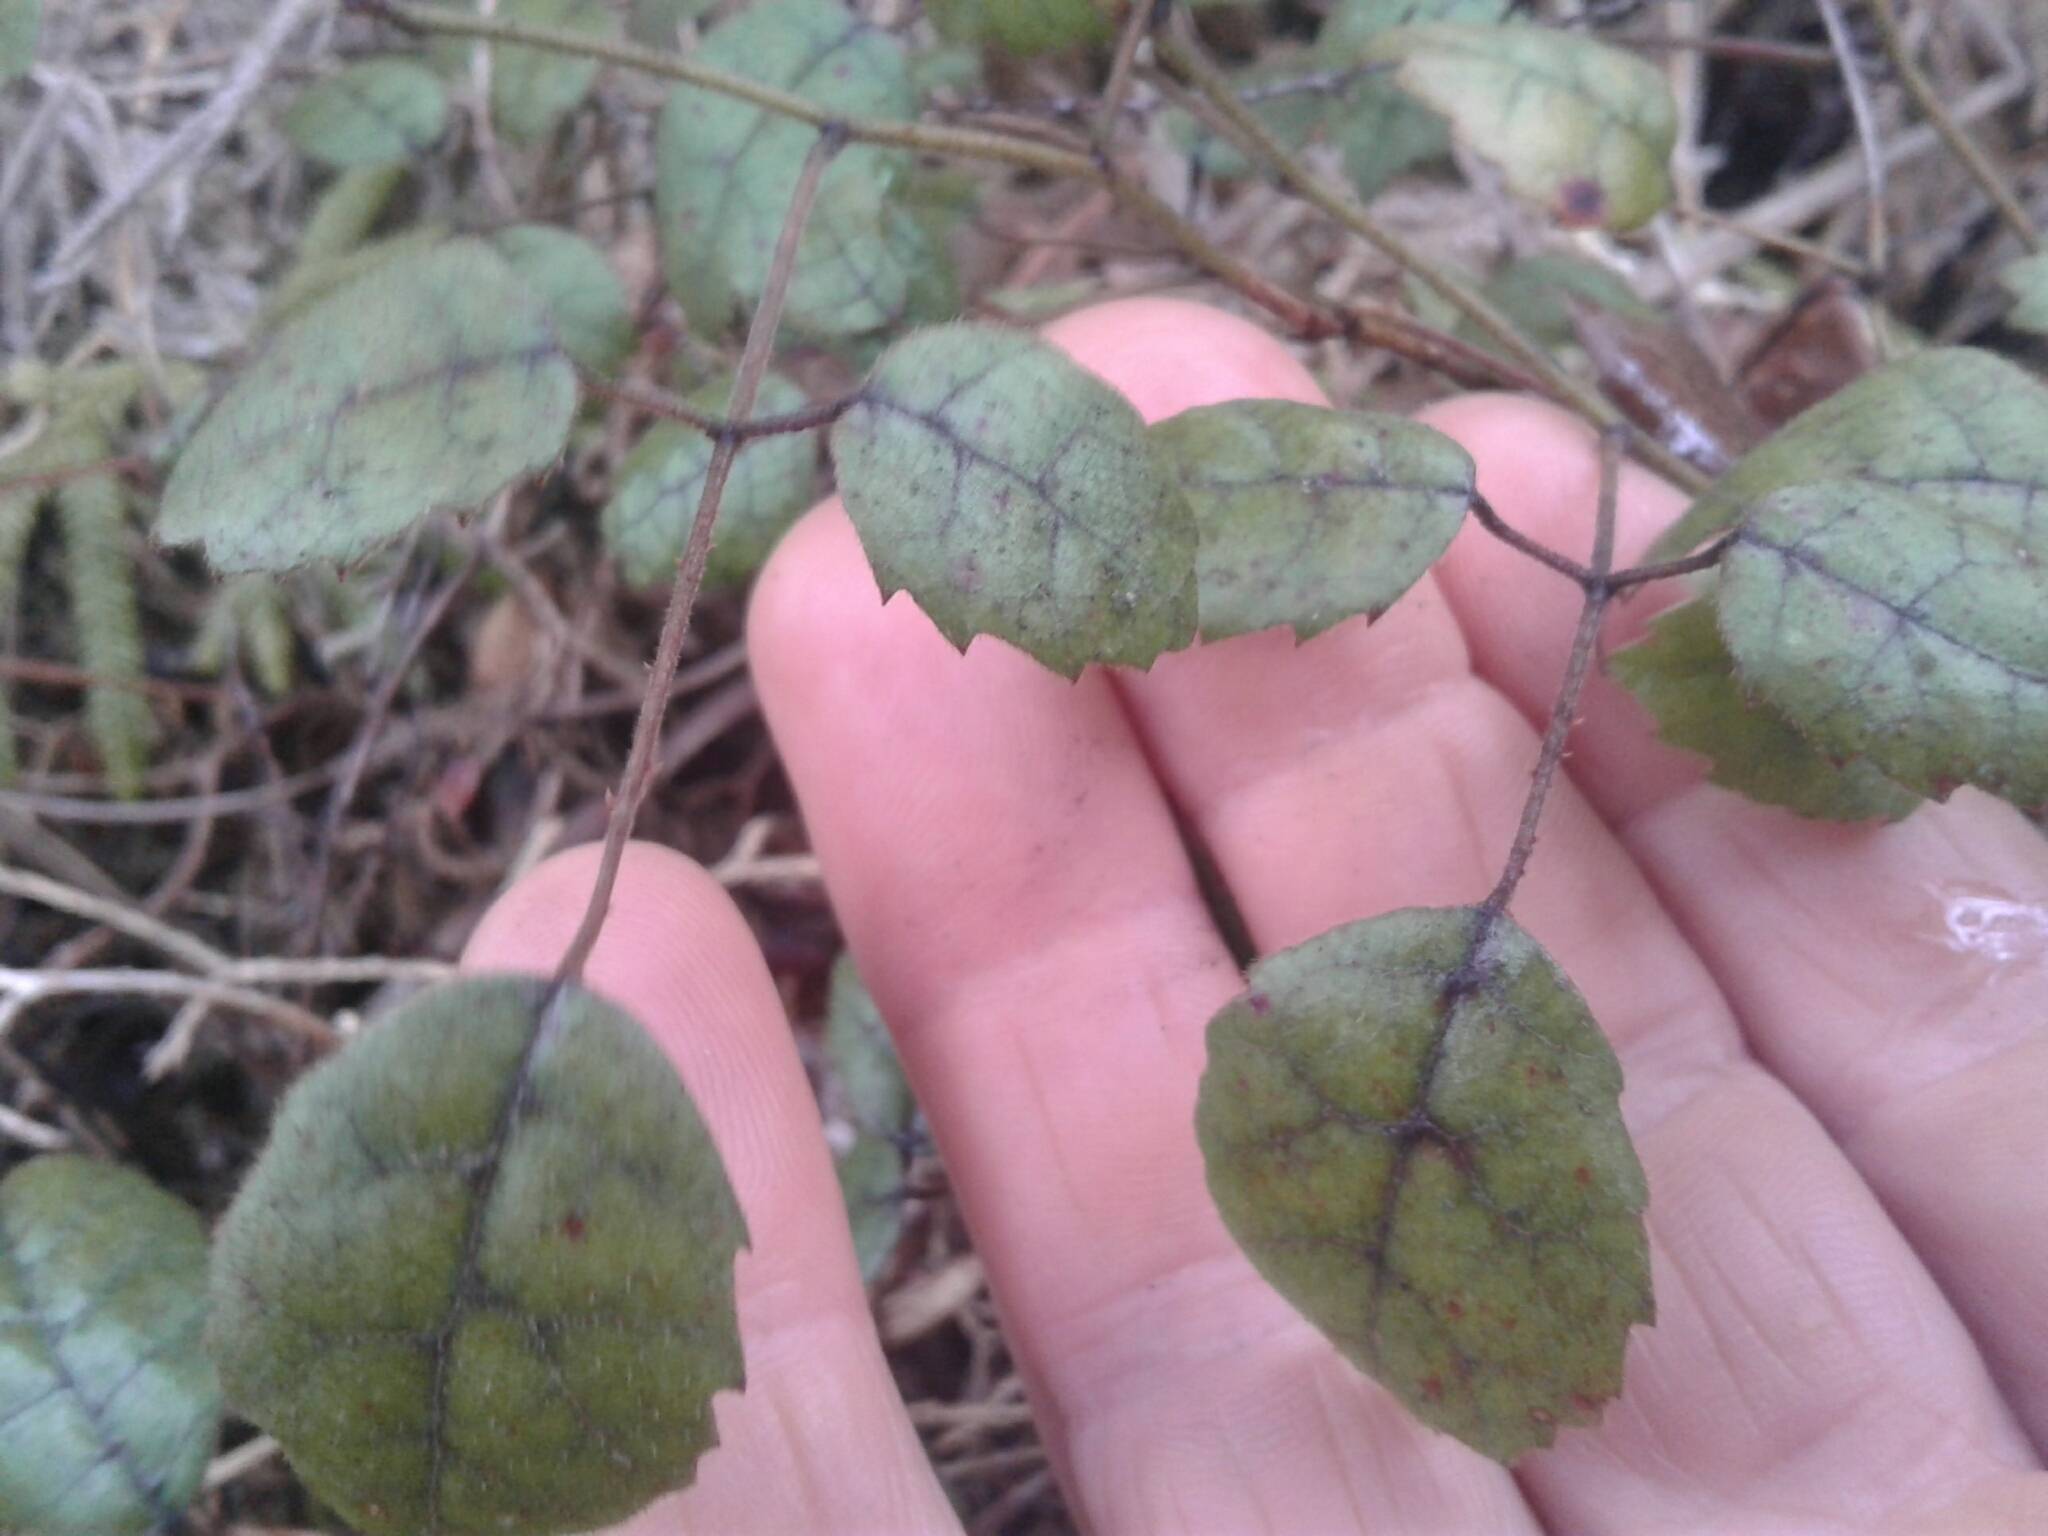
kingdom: Plantae
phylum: Tracheophyta
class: Magnoliopsida
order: Rosales
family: Rosaceae
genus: Rubus
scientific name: Rubus australis
